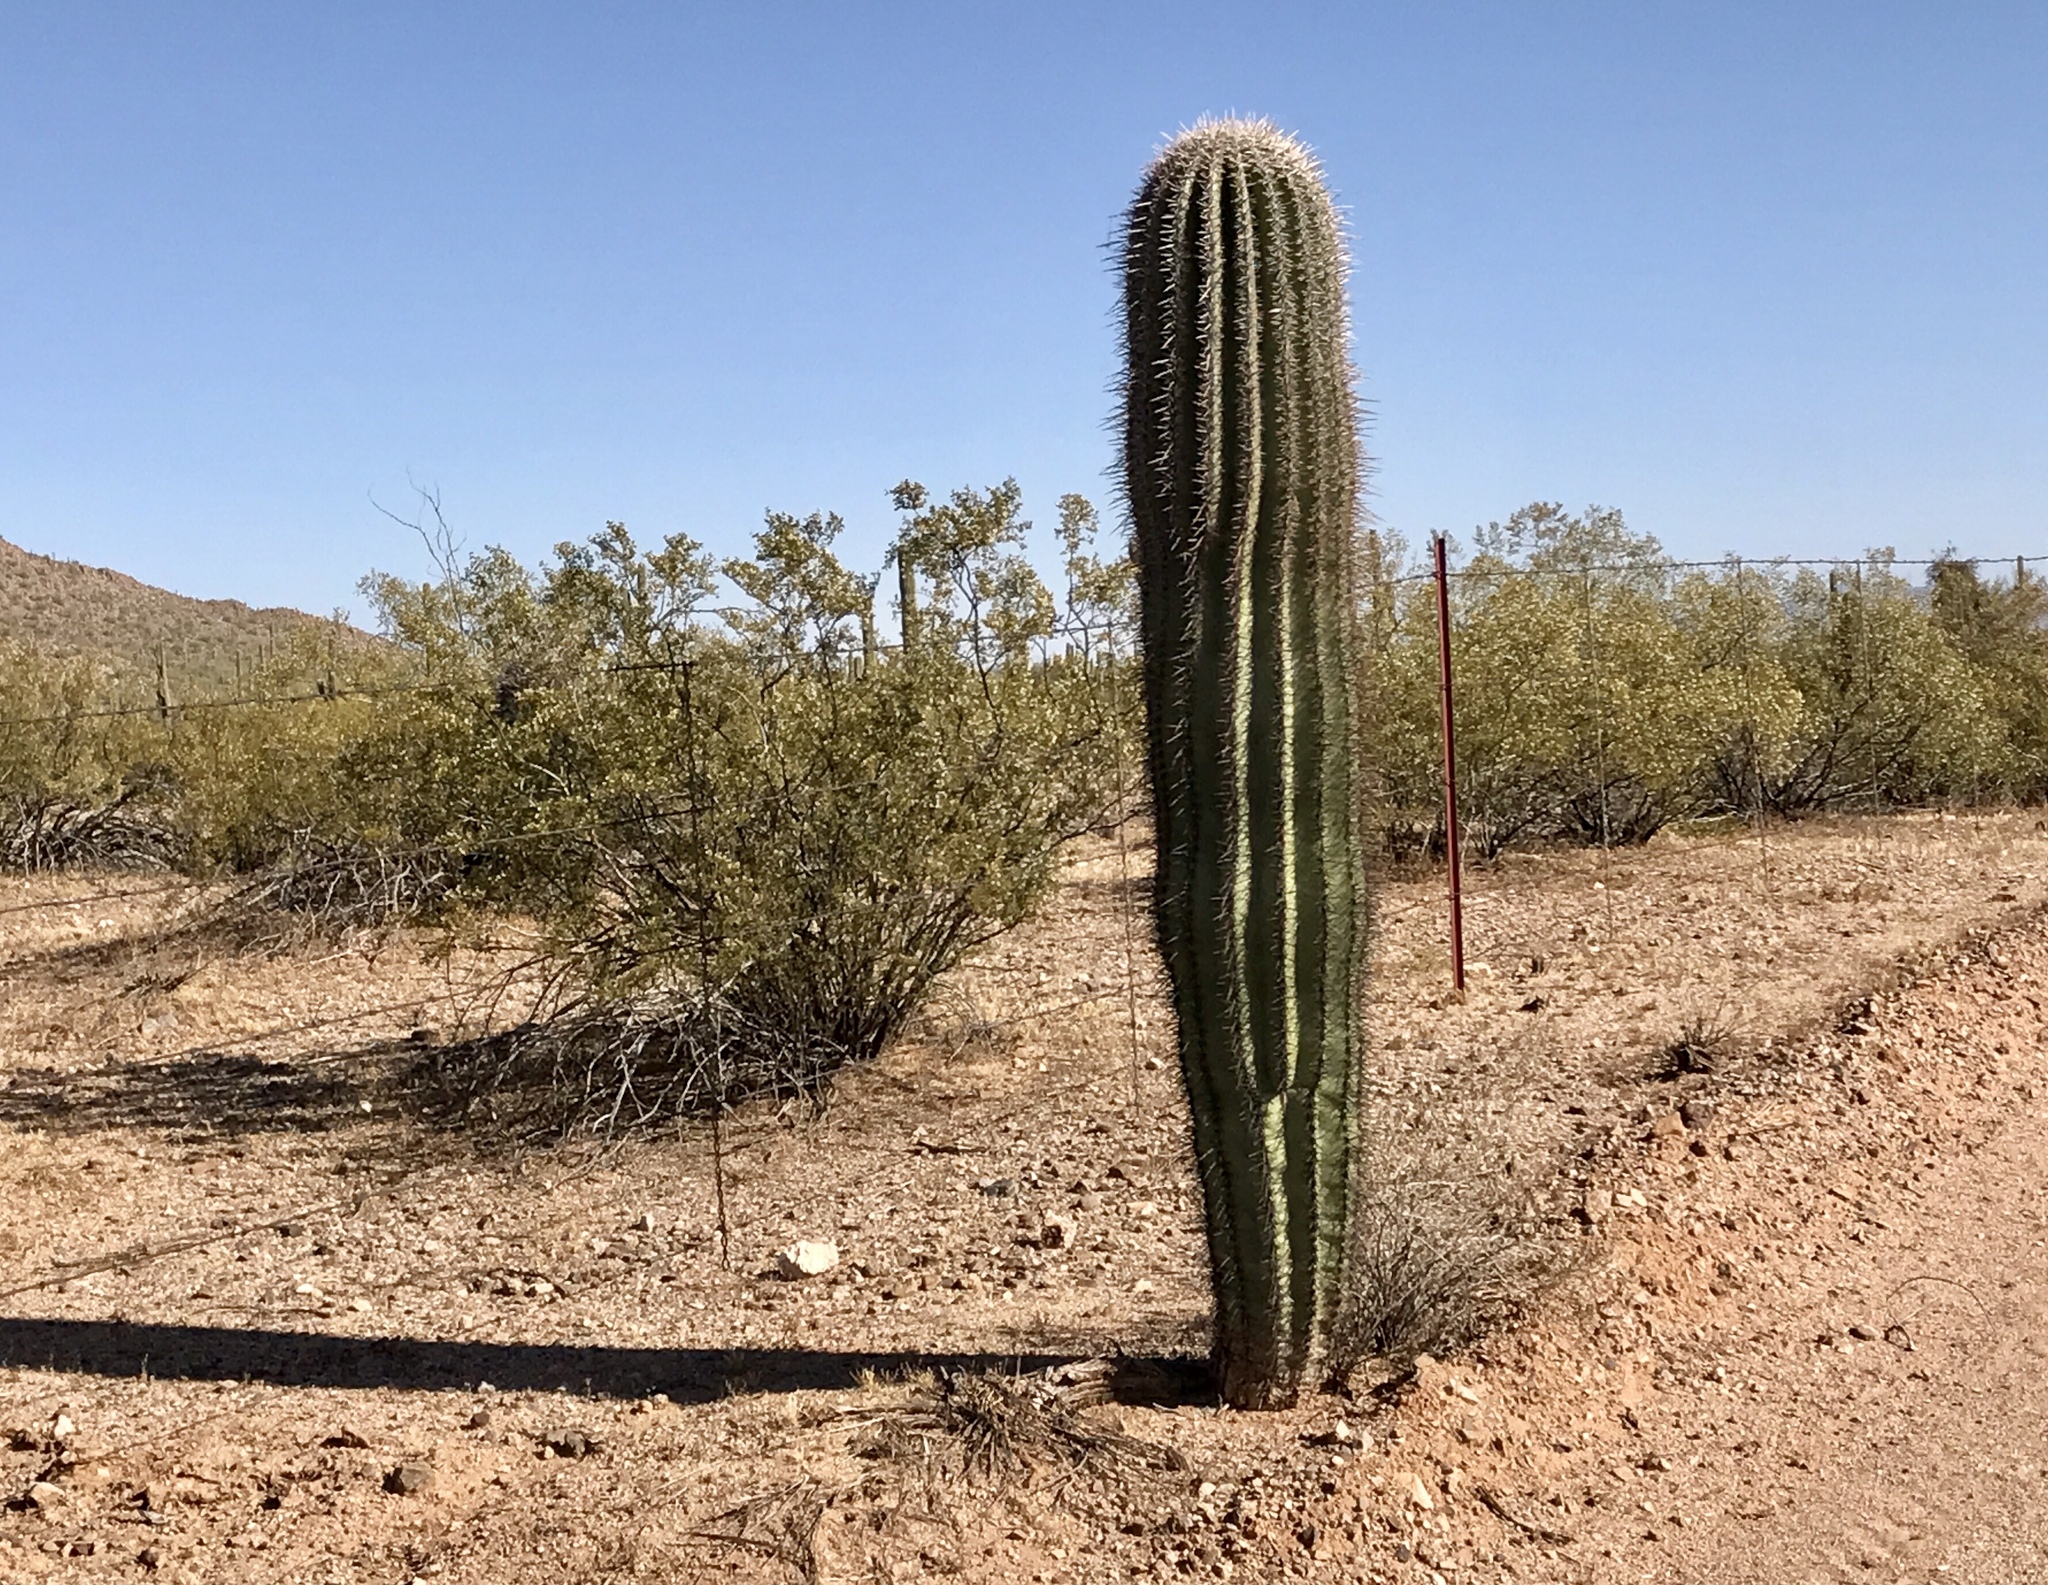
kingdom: Plantae
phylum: Tracheophyta
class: Magnoliopsida
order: Caryophyllales
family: Cactaceae
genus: Carnegiea
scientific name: Carnegiea gigantea
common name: Saguaro
